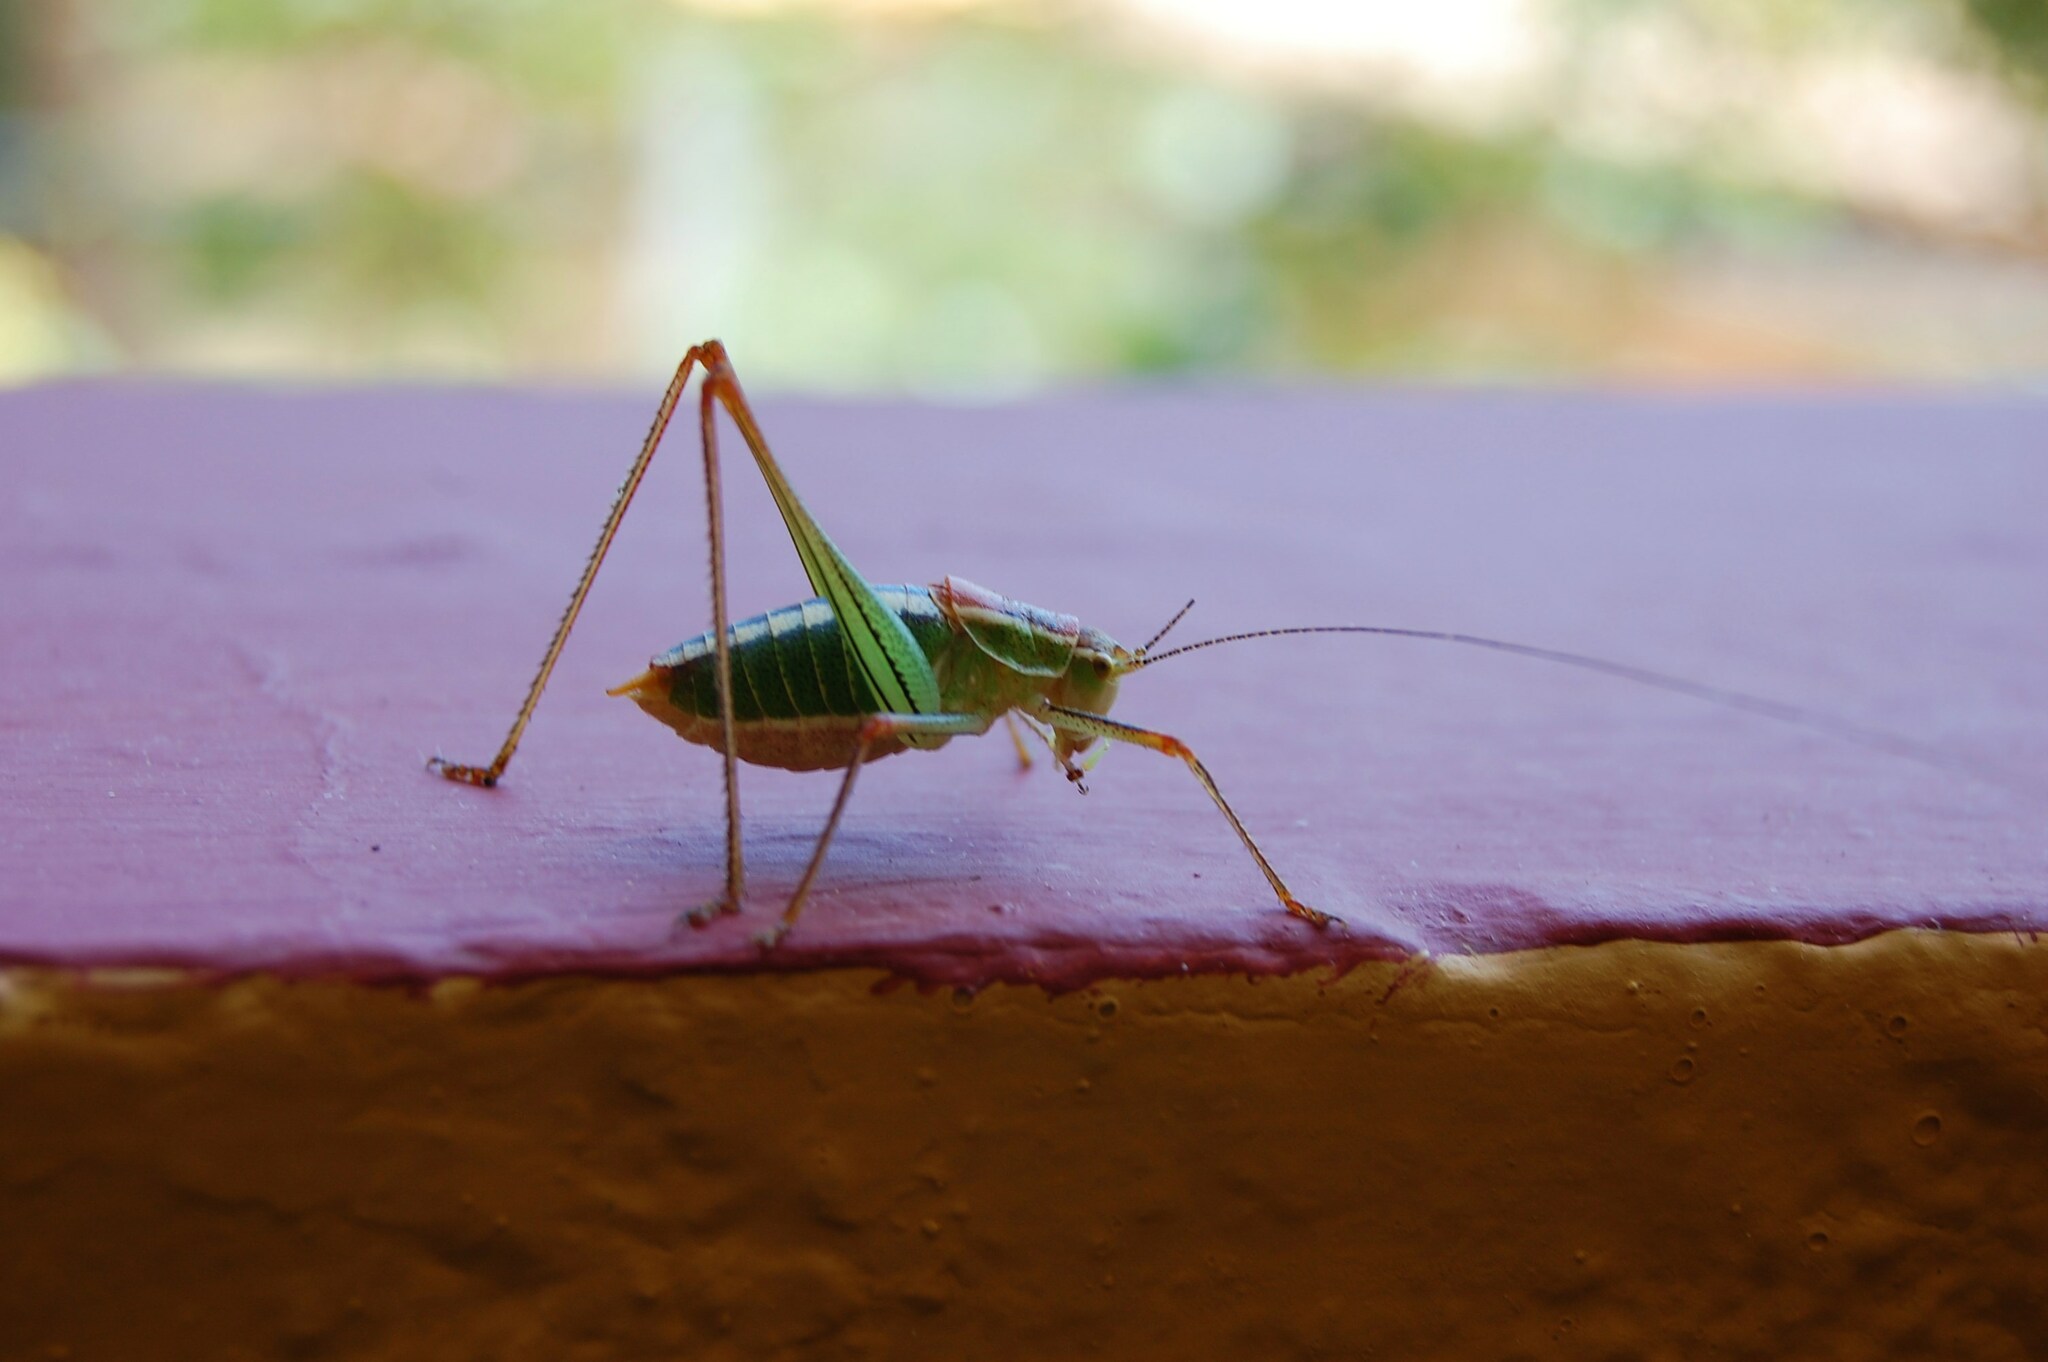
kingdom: Animalia
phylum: Arthropoda
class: Insecta
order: Orthoptera
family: Tettigoniidae
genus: Poecilimon
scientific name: Poecilimon jonicus
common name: Ionian bright bush-cricket
